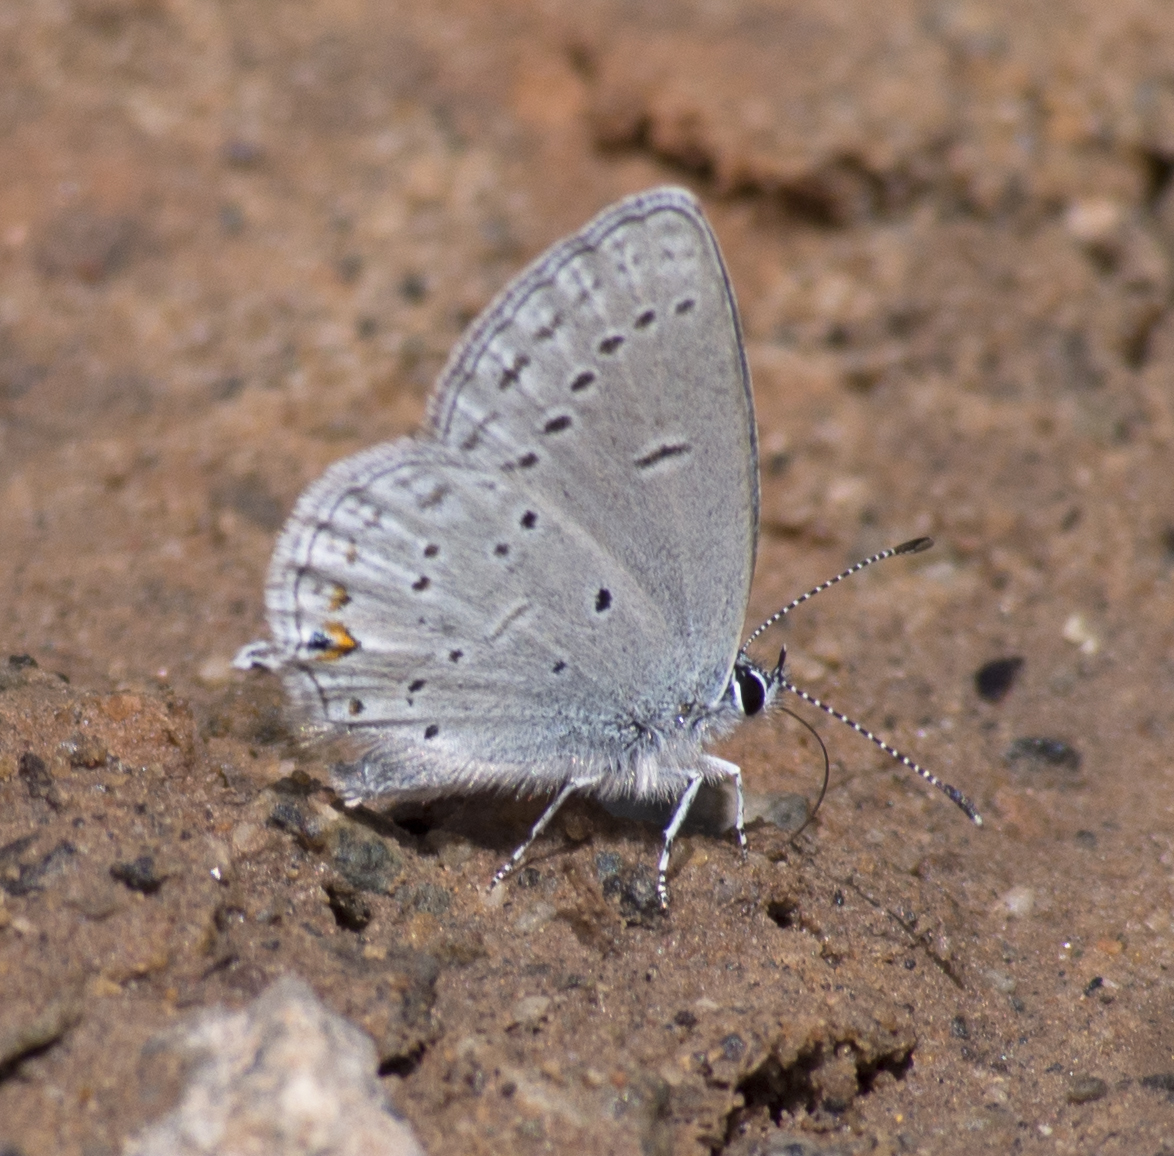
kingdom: Animalia
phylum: Arthropoda
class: Insecta
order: Lepidoptera
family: Lycaenidae
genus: Elkalyce
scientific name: Elkalyce amyntula
